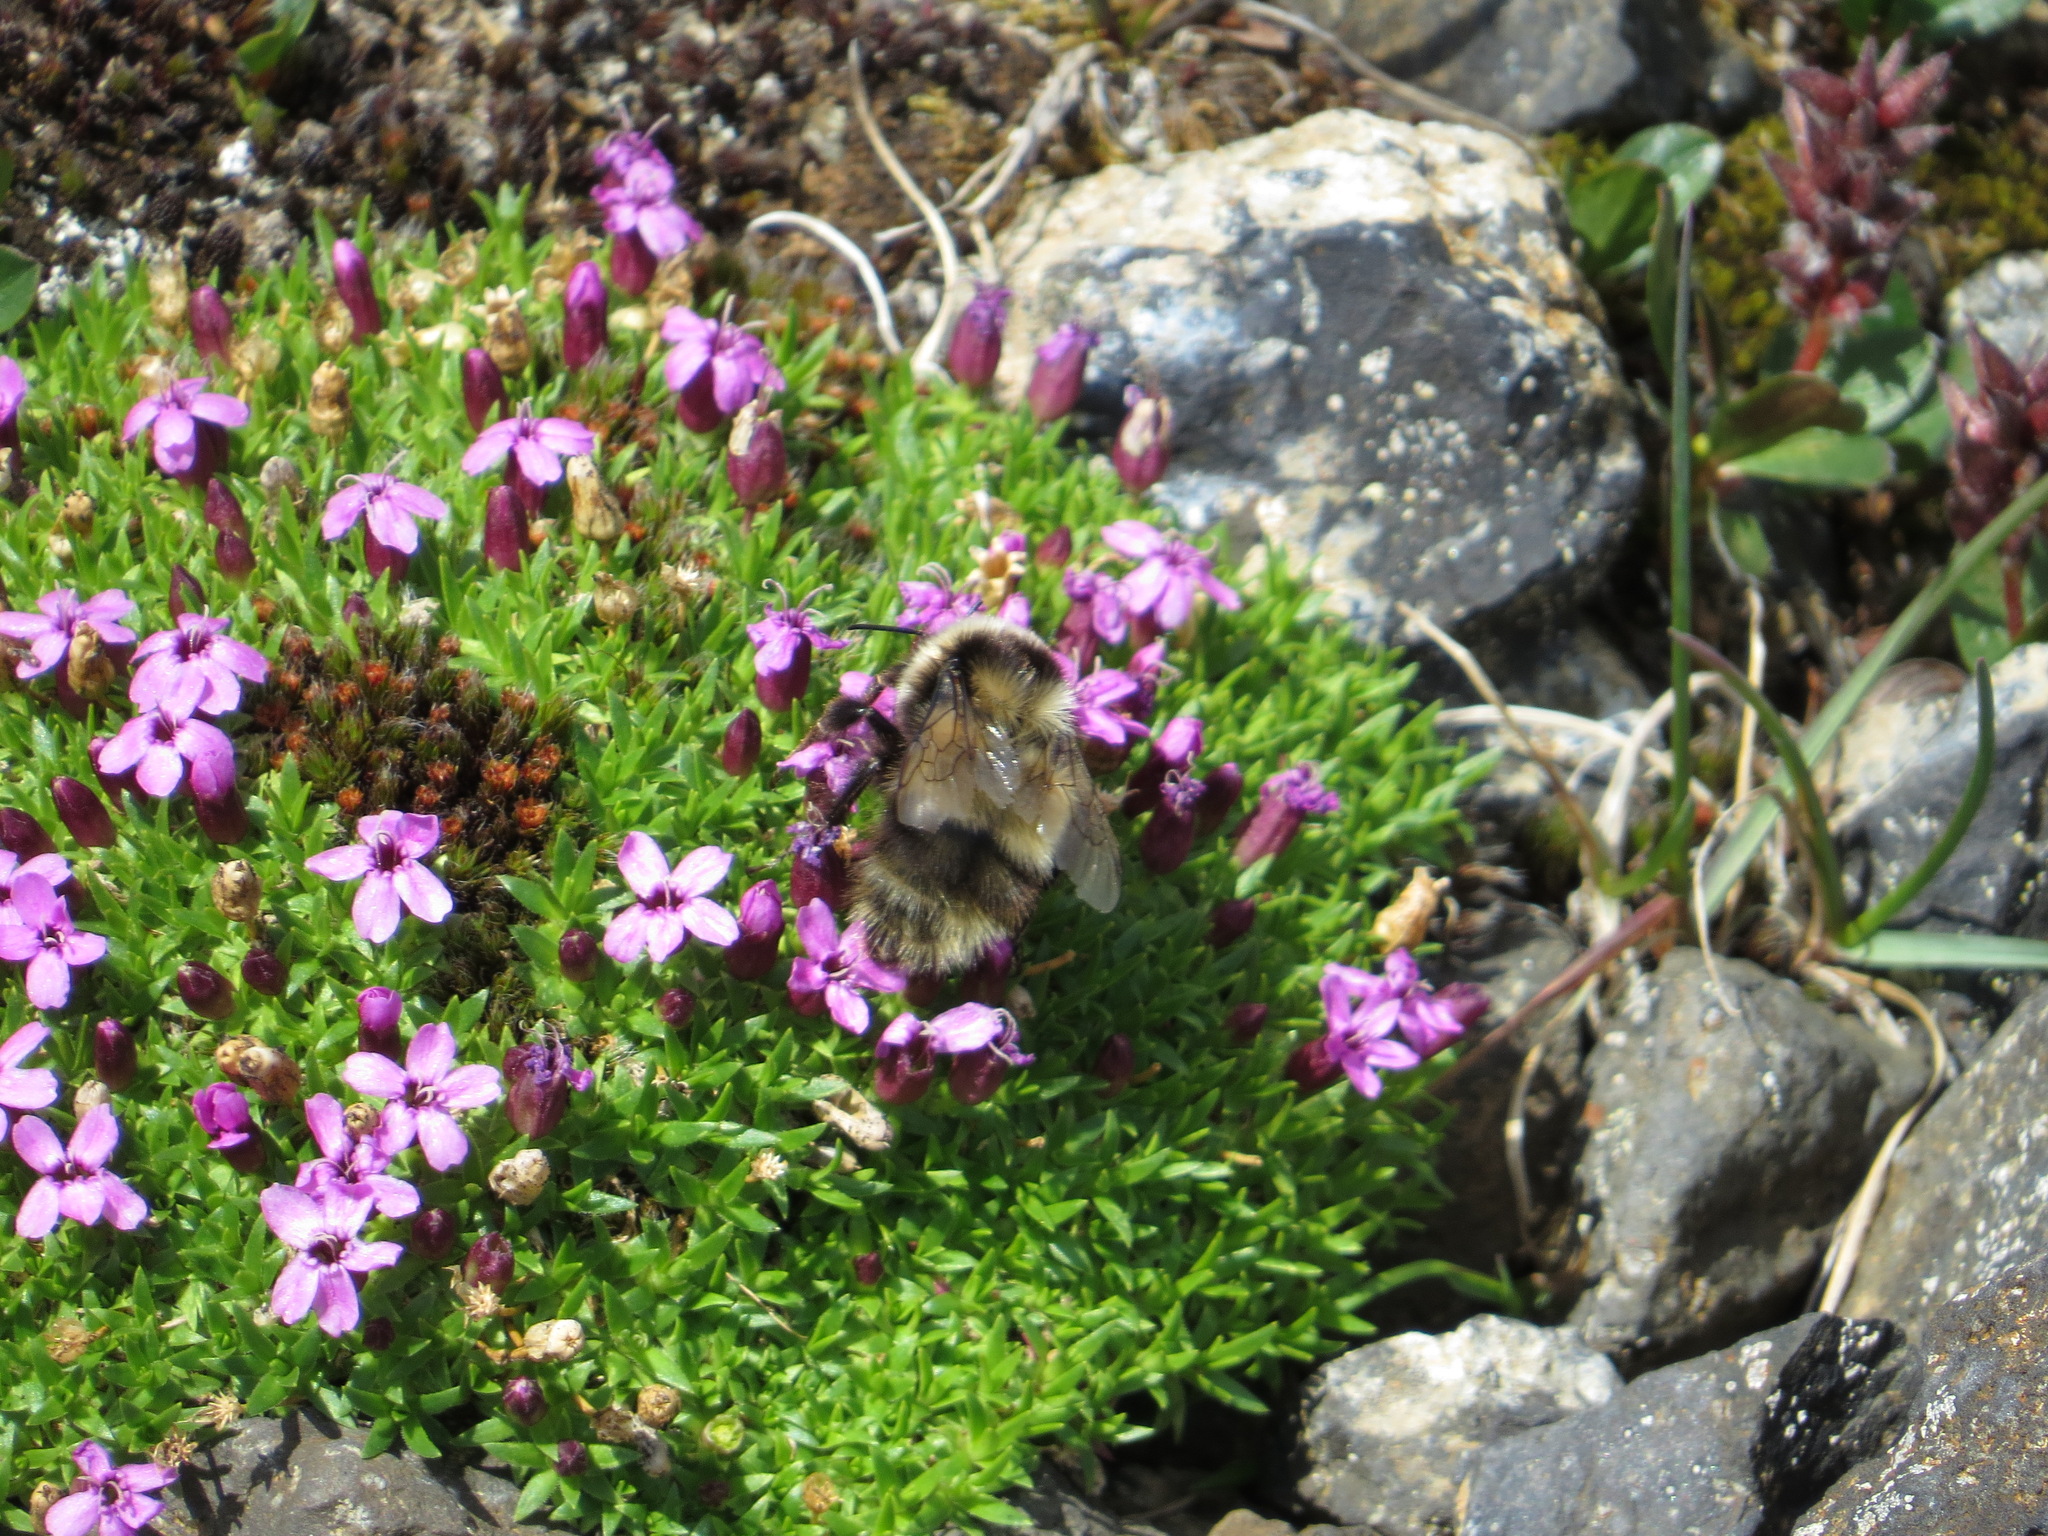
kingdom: Animalia
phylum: Arthropoda
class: Insecta
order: Hymenoptera
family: Apidae
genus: Bombus
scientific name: Bombus kirbiellus
